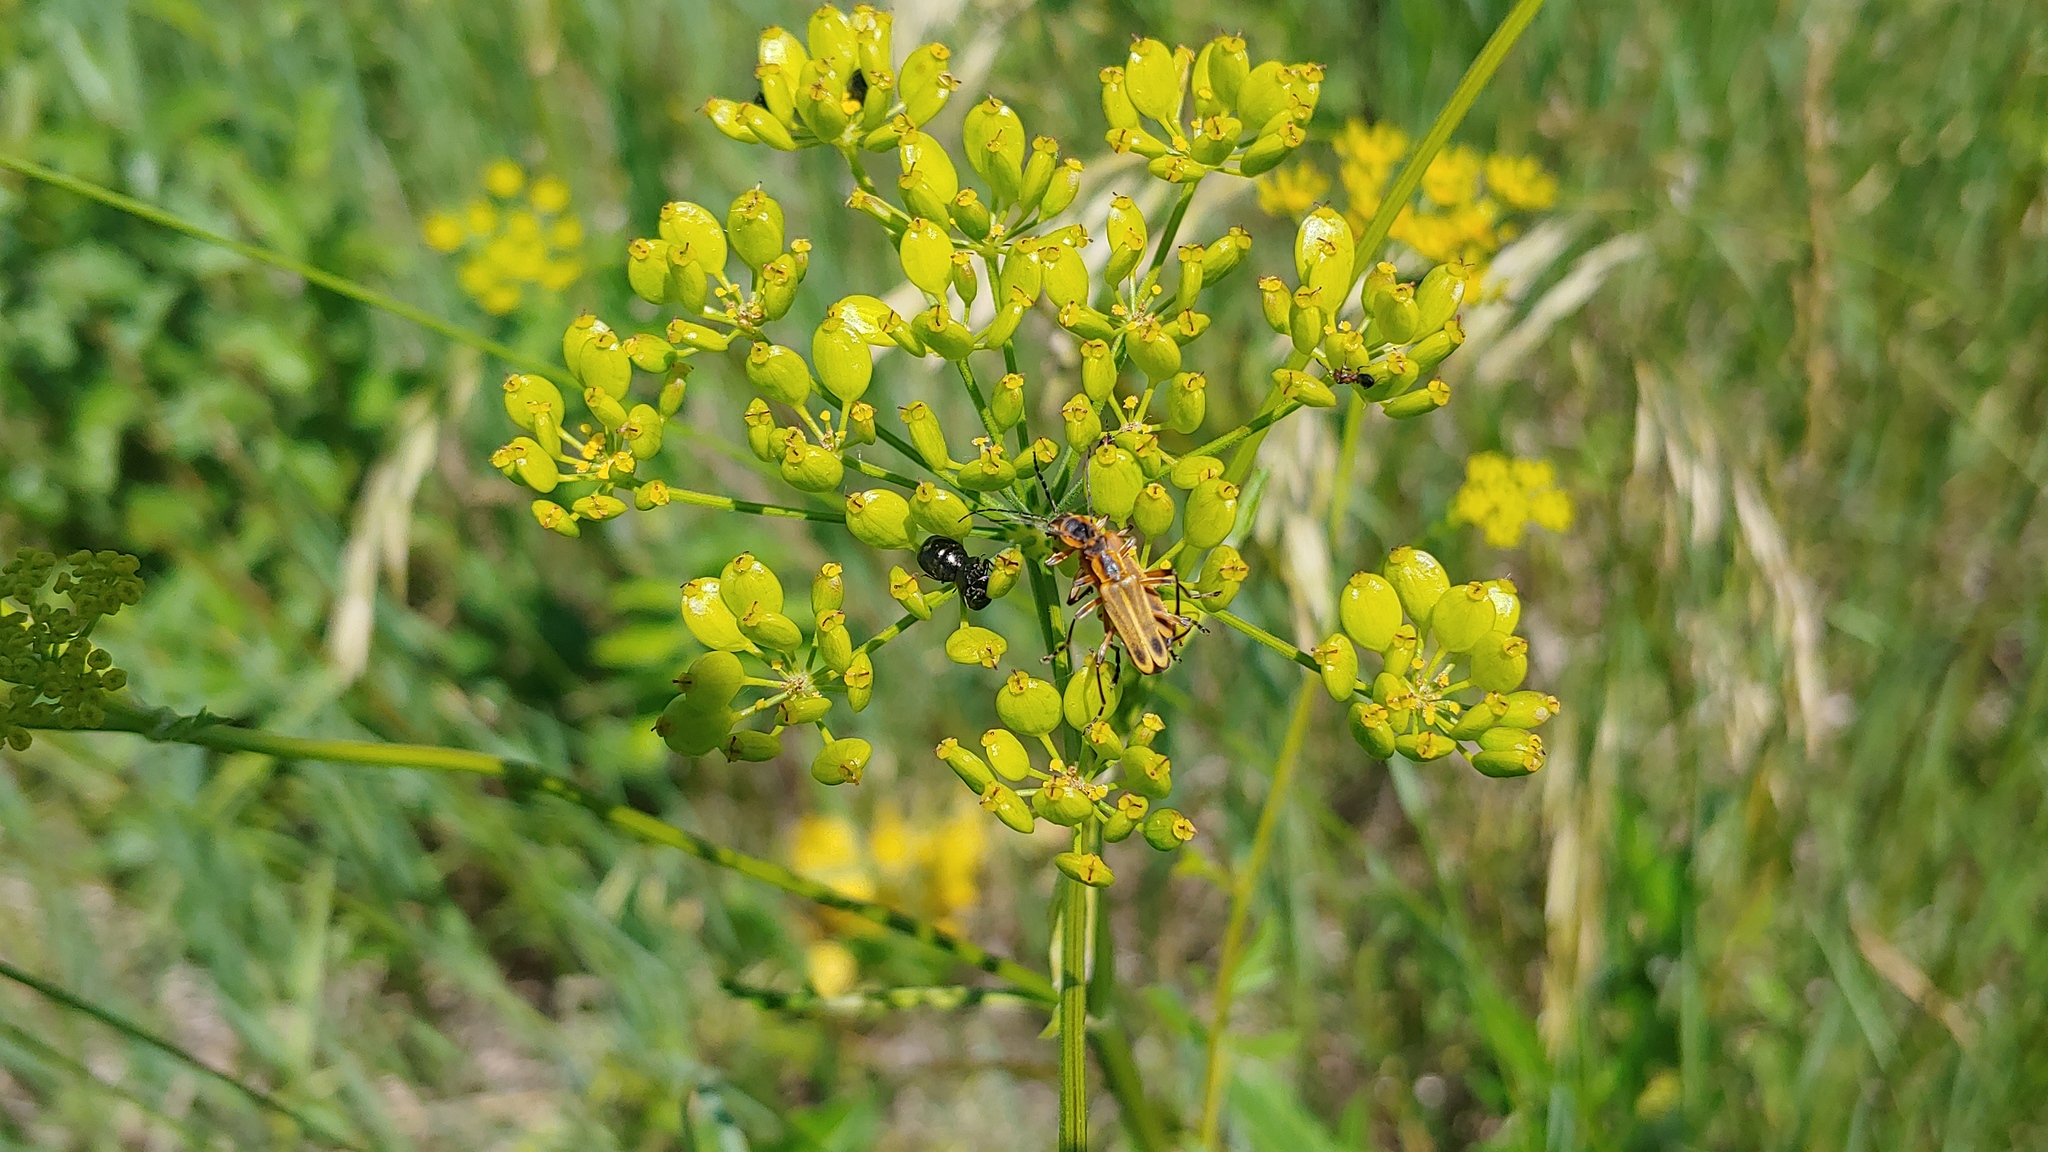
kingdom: Animalia
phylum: Arthropoda
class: Insecta
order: Coleoptera
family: Cantharidae
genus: Chauliognathus
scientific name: Chauliognathus marginatus
